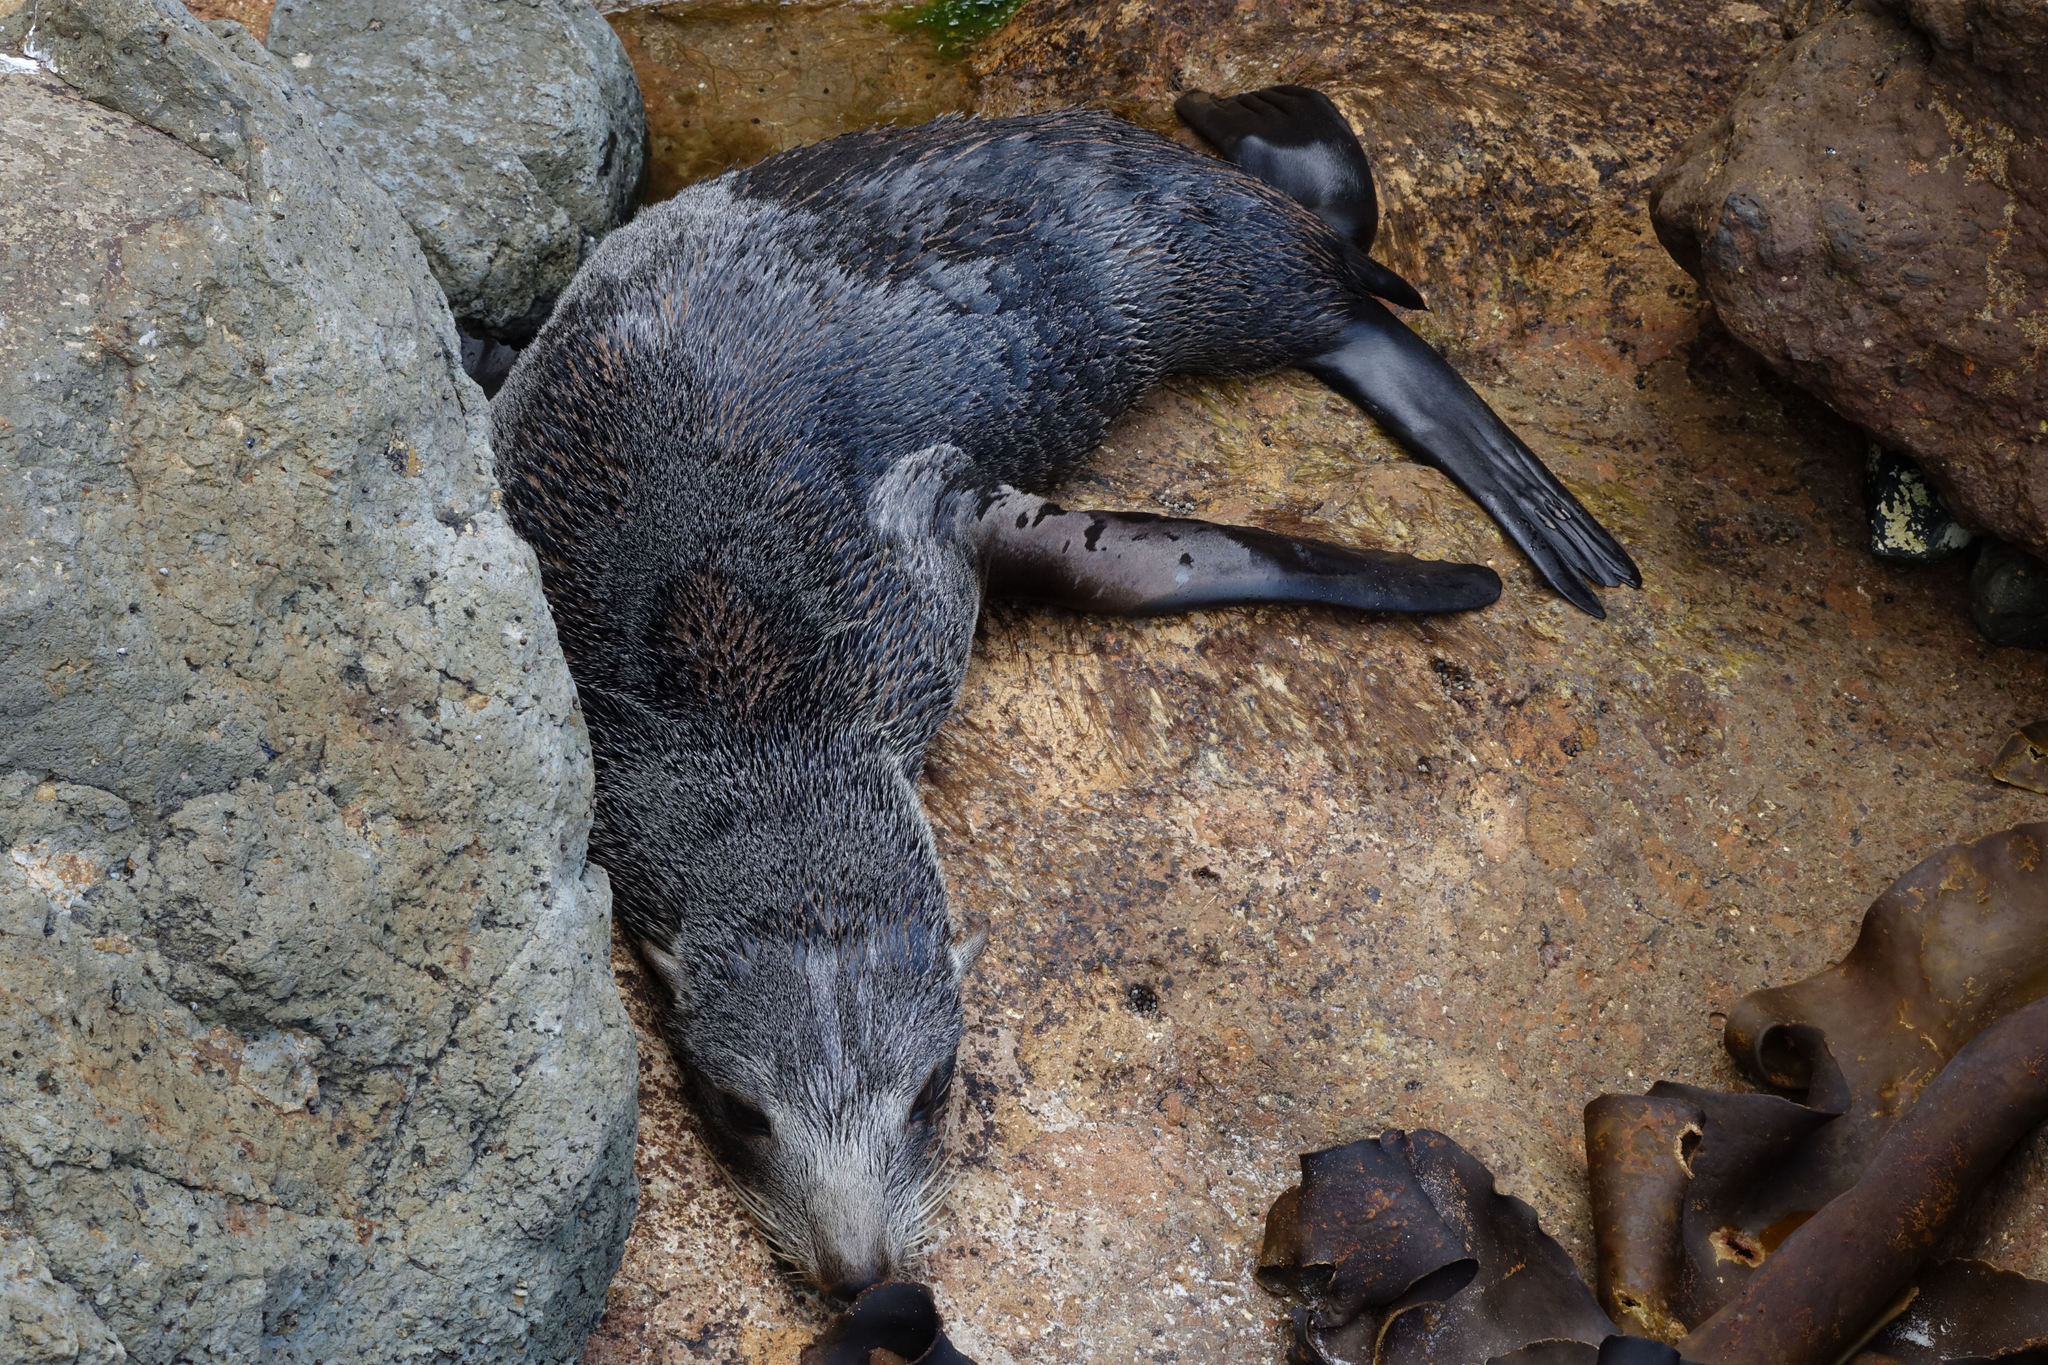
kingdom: Animalia
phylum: Chordata
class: Mammalia
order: Carnivora
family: Otariidae
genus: Arctocephalus
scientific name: Arctocephalus forsteri
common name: New zealand fur seal
